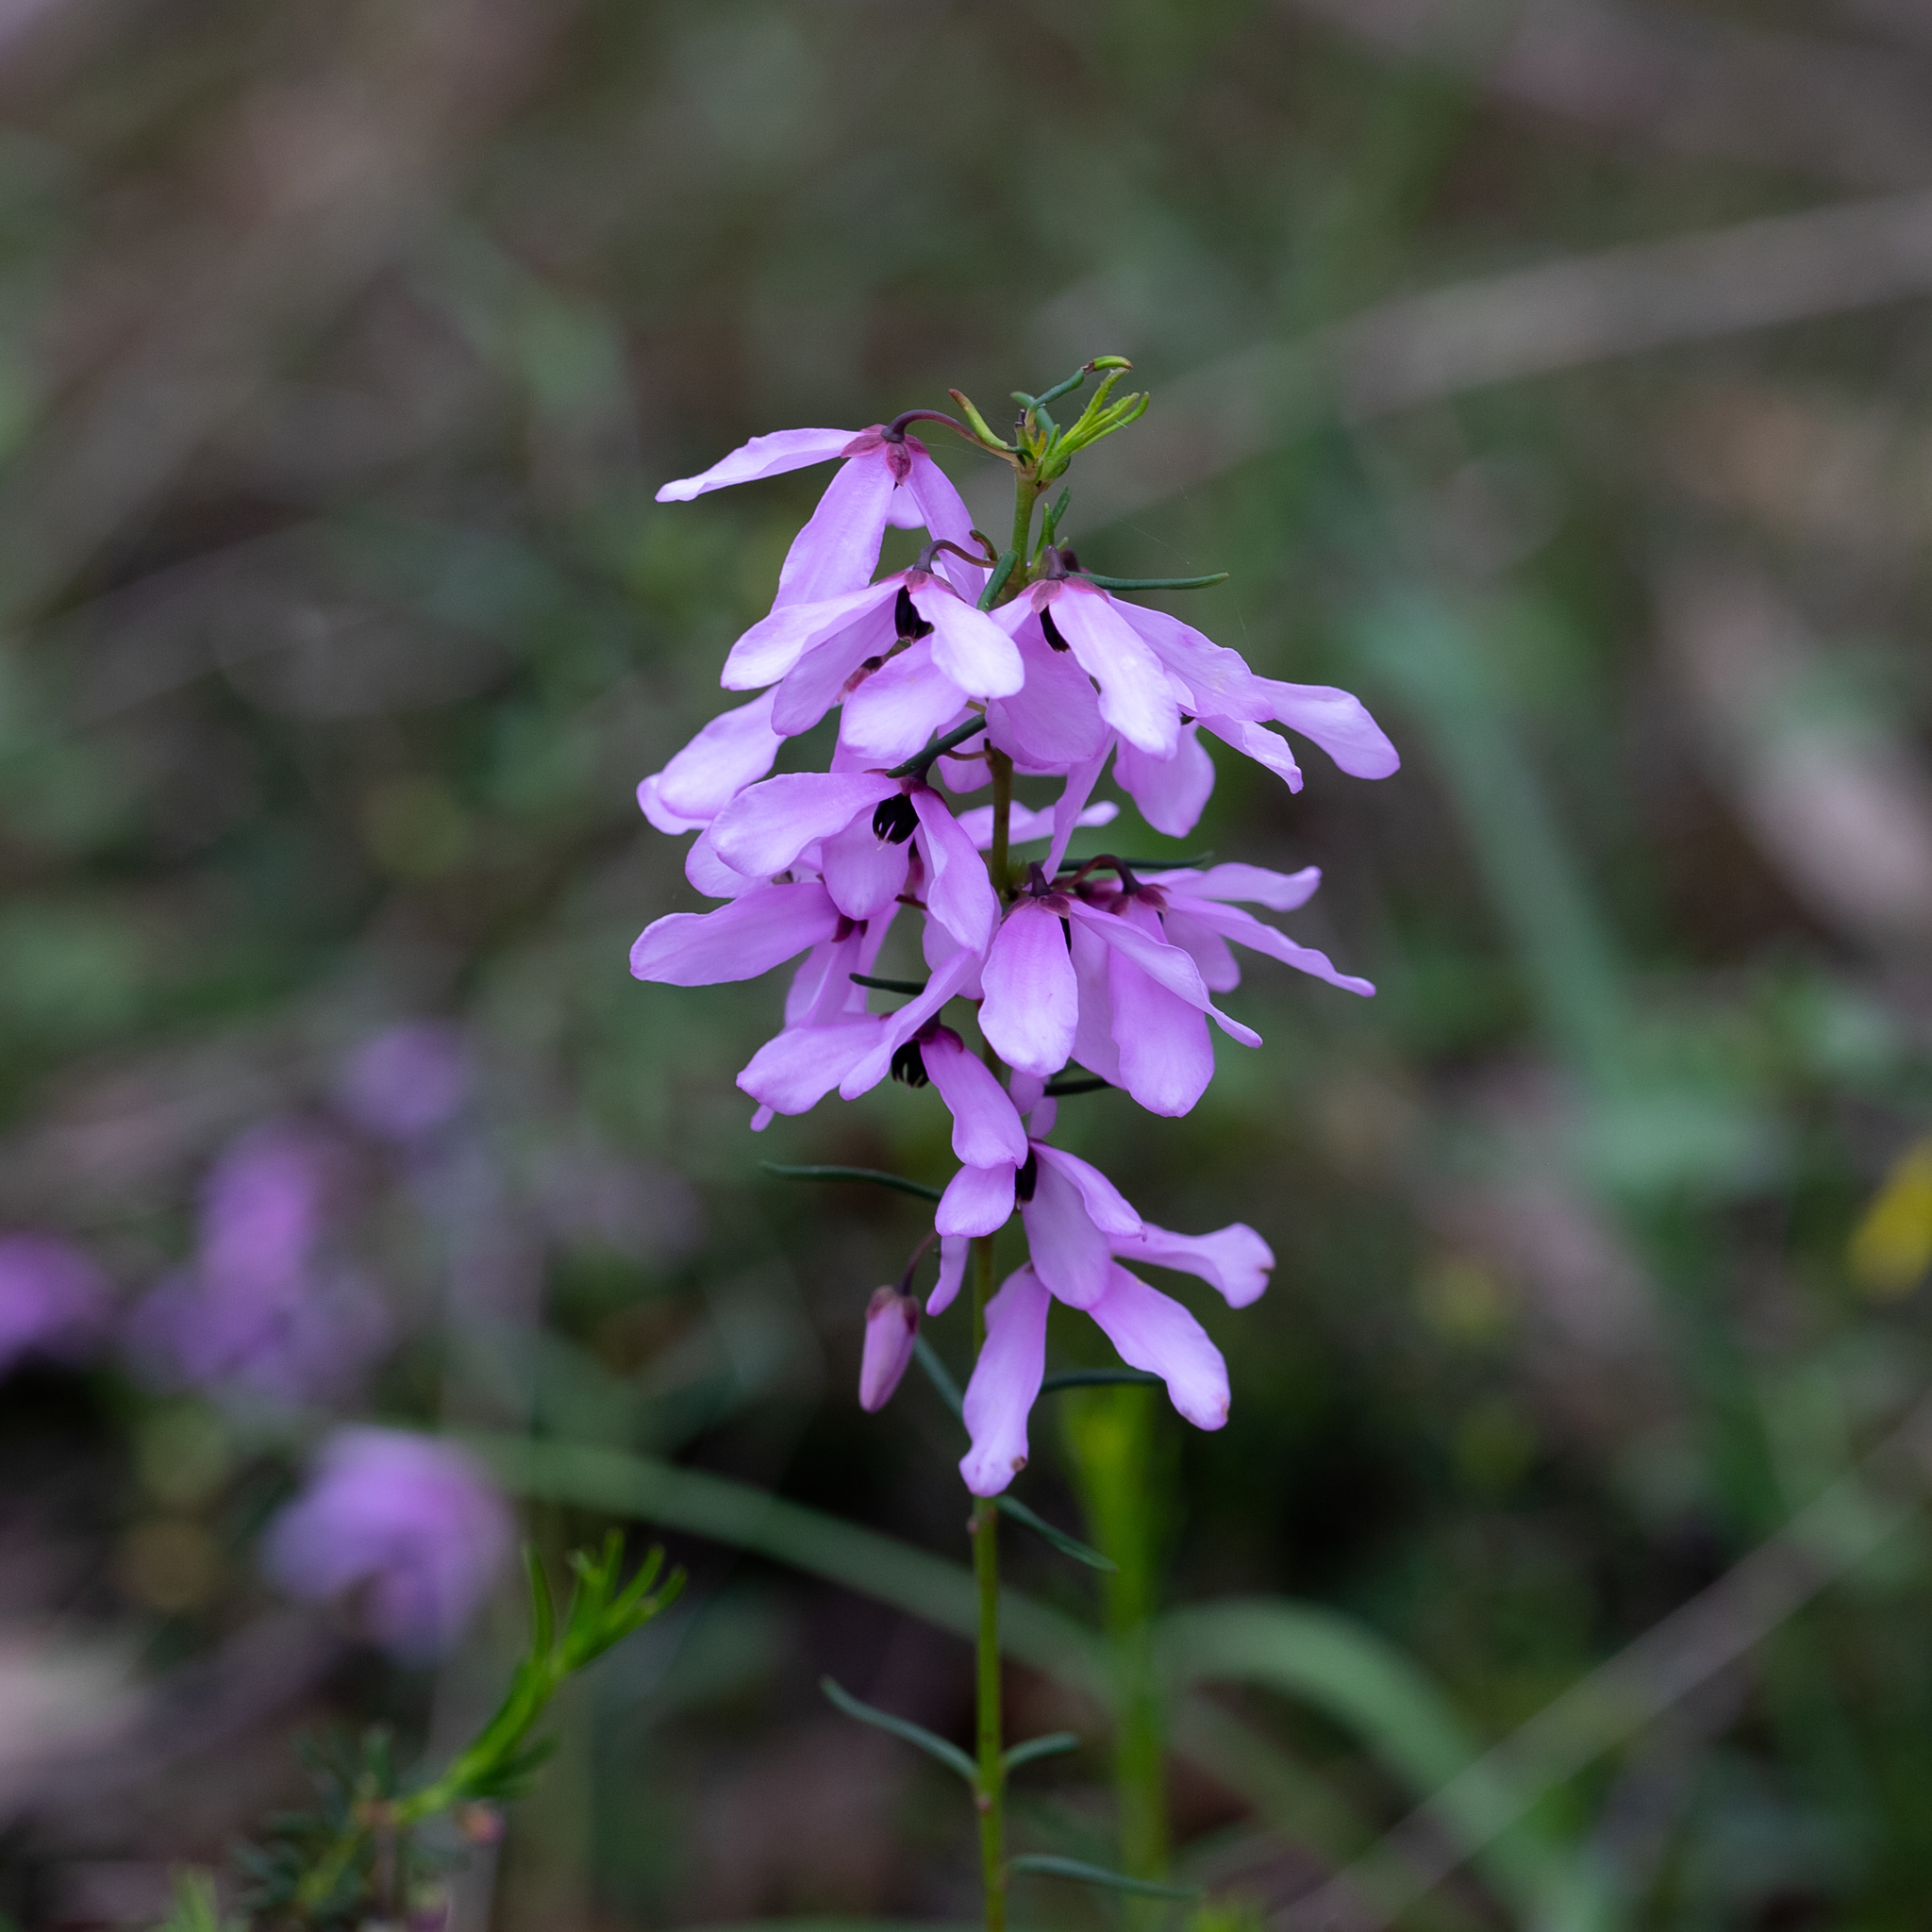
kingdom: Plantae
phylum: Tracheophyta
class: Magnoliopsida
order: Oxalidales
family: Elaeocarpaceae
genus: Tetratheca
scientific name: Tetratheca pilosa
